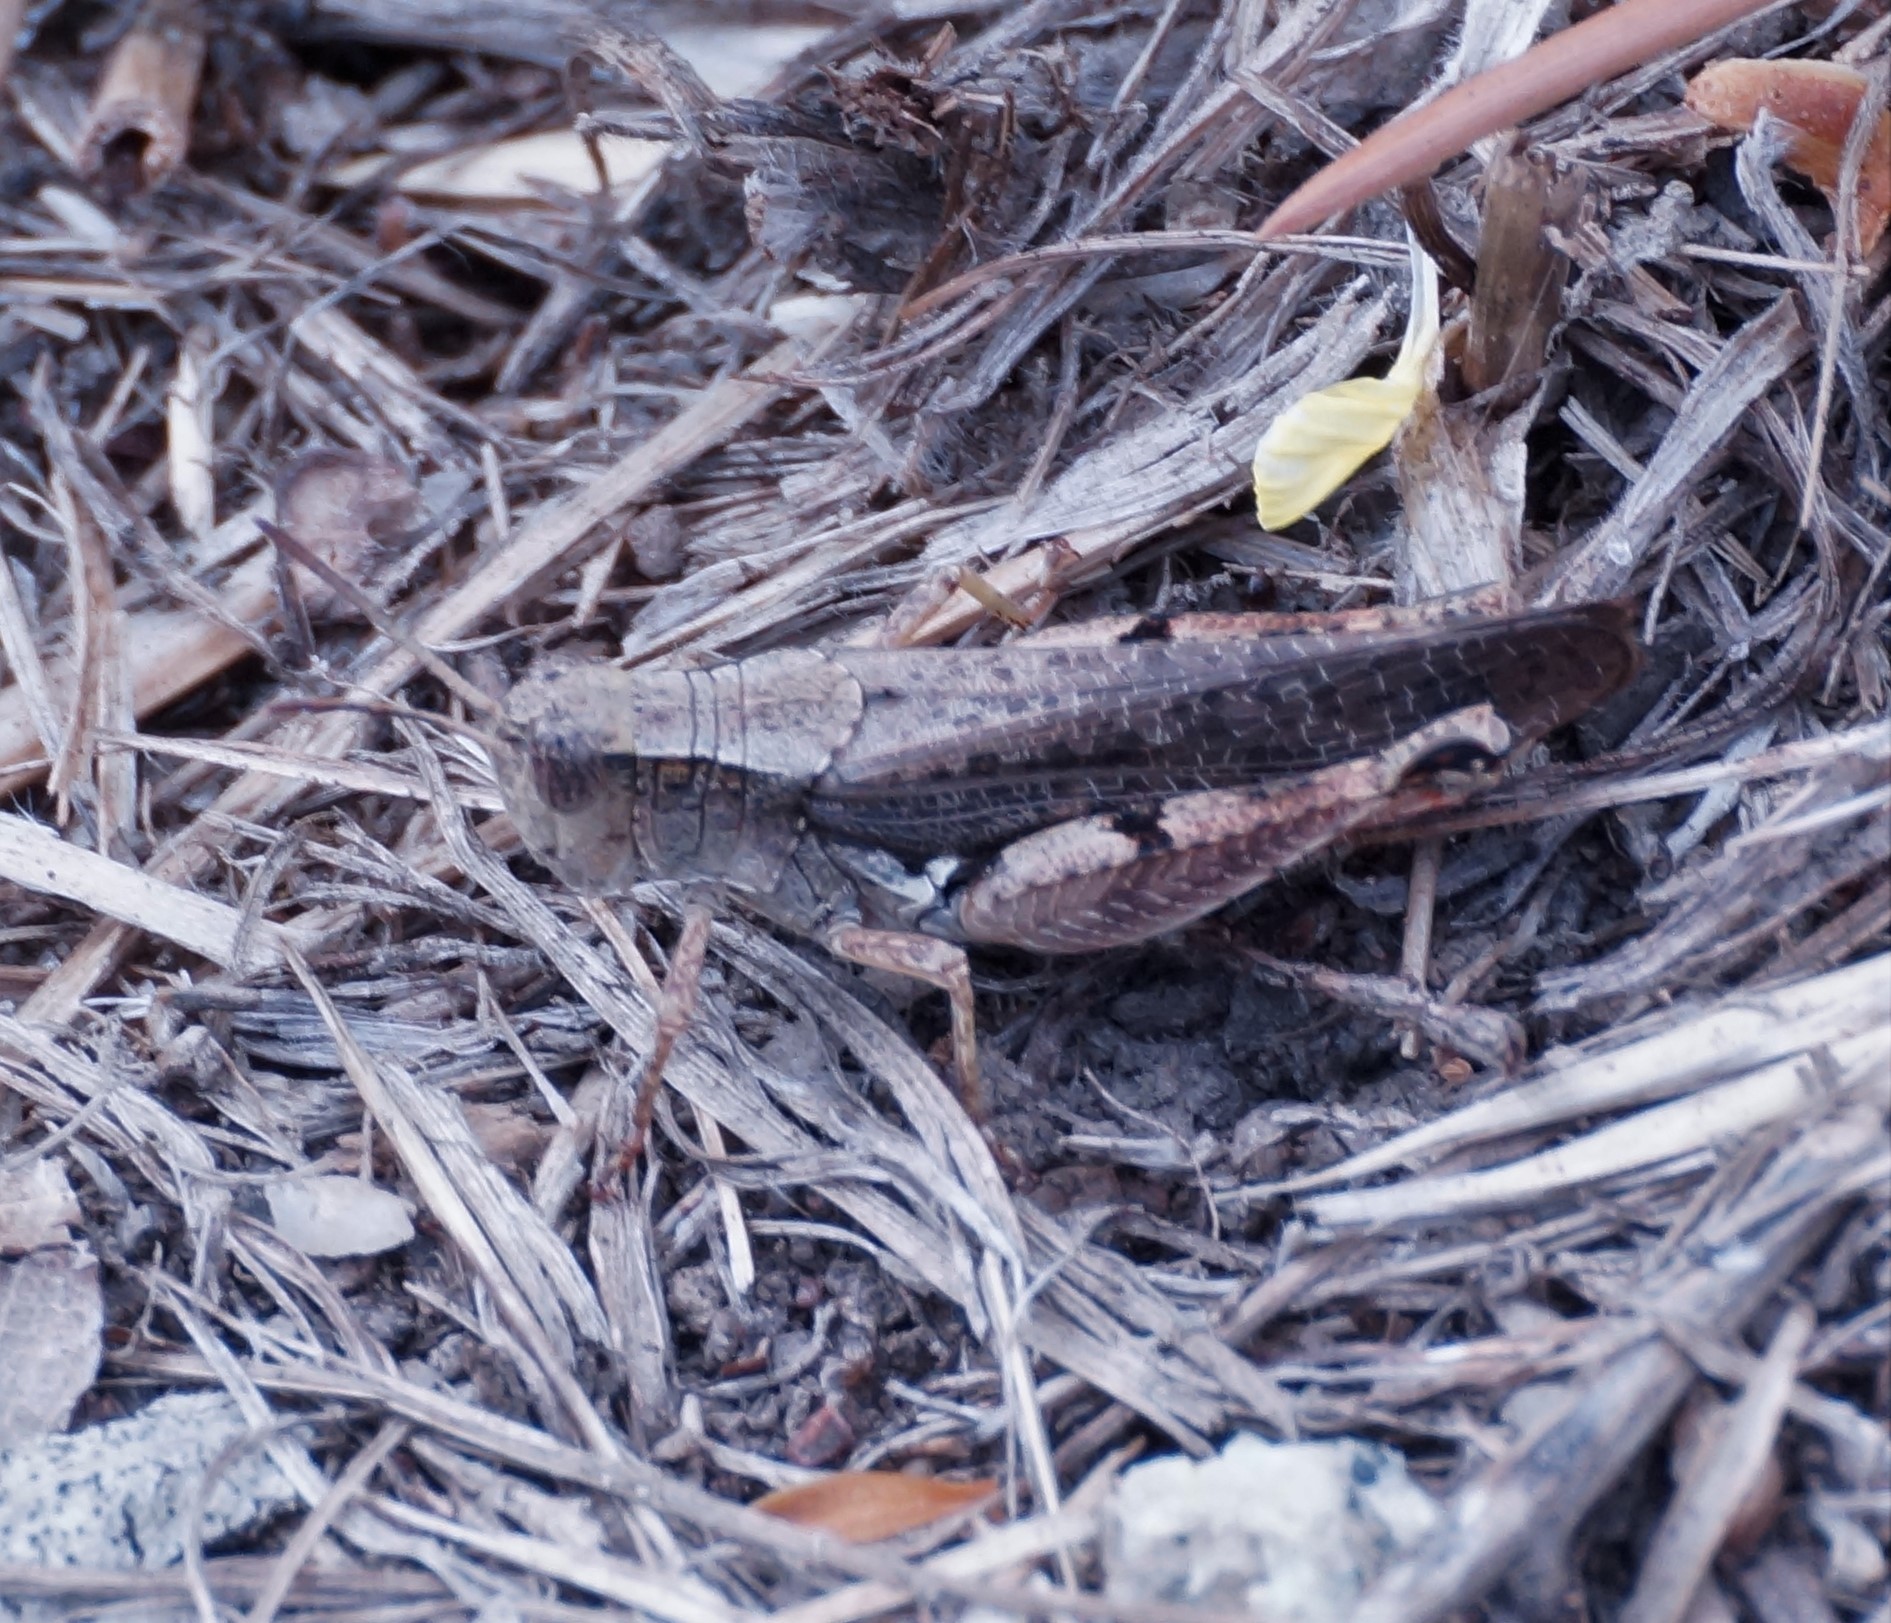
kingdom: Animalia
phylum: Arthropoda
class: Insecta
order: Orthoptera
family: Acrididae
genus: Phaulacridium
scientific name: Phaulacridium vittatum
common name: Wingless grasshopper
